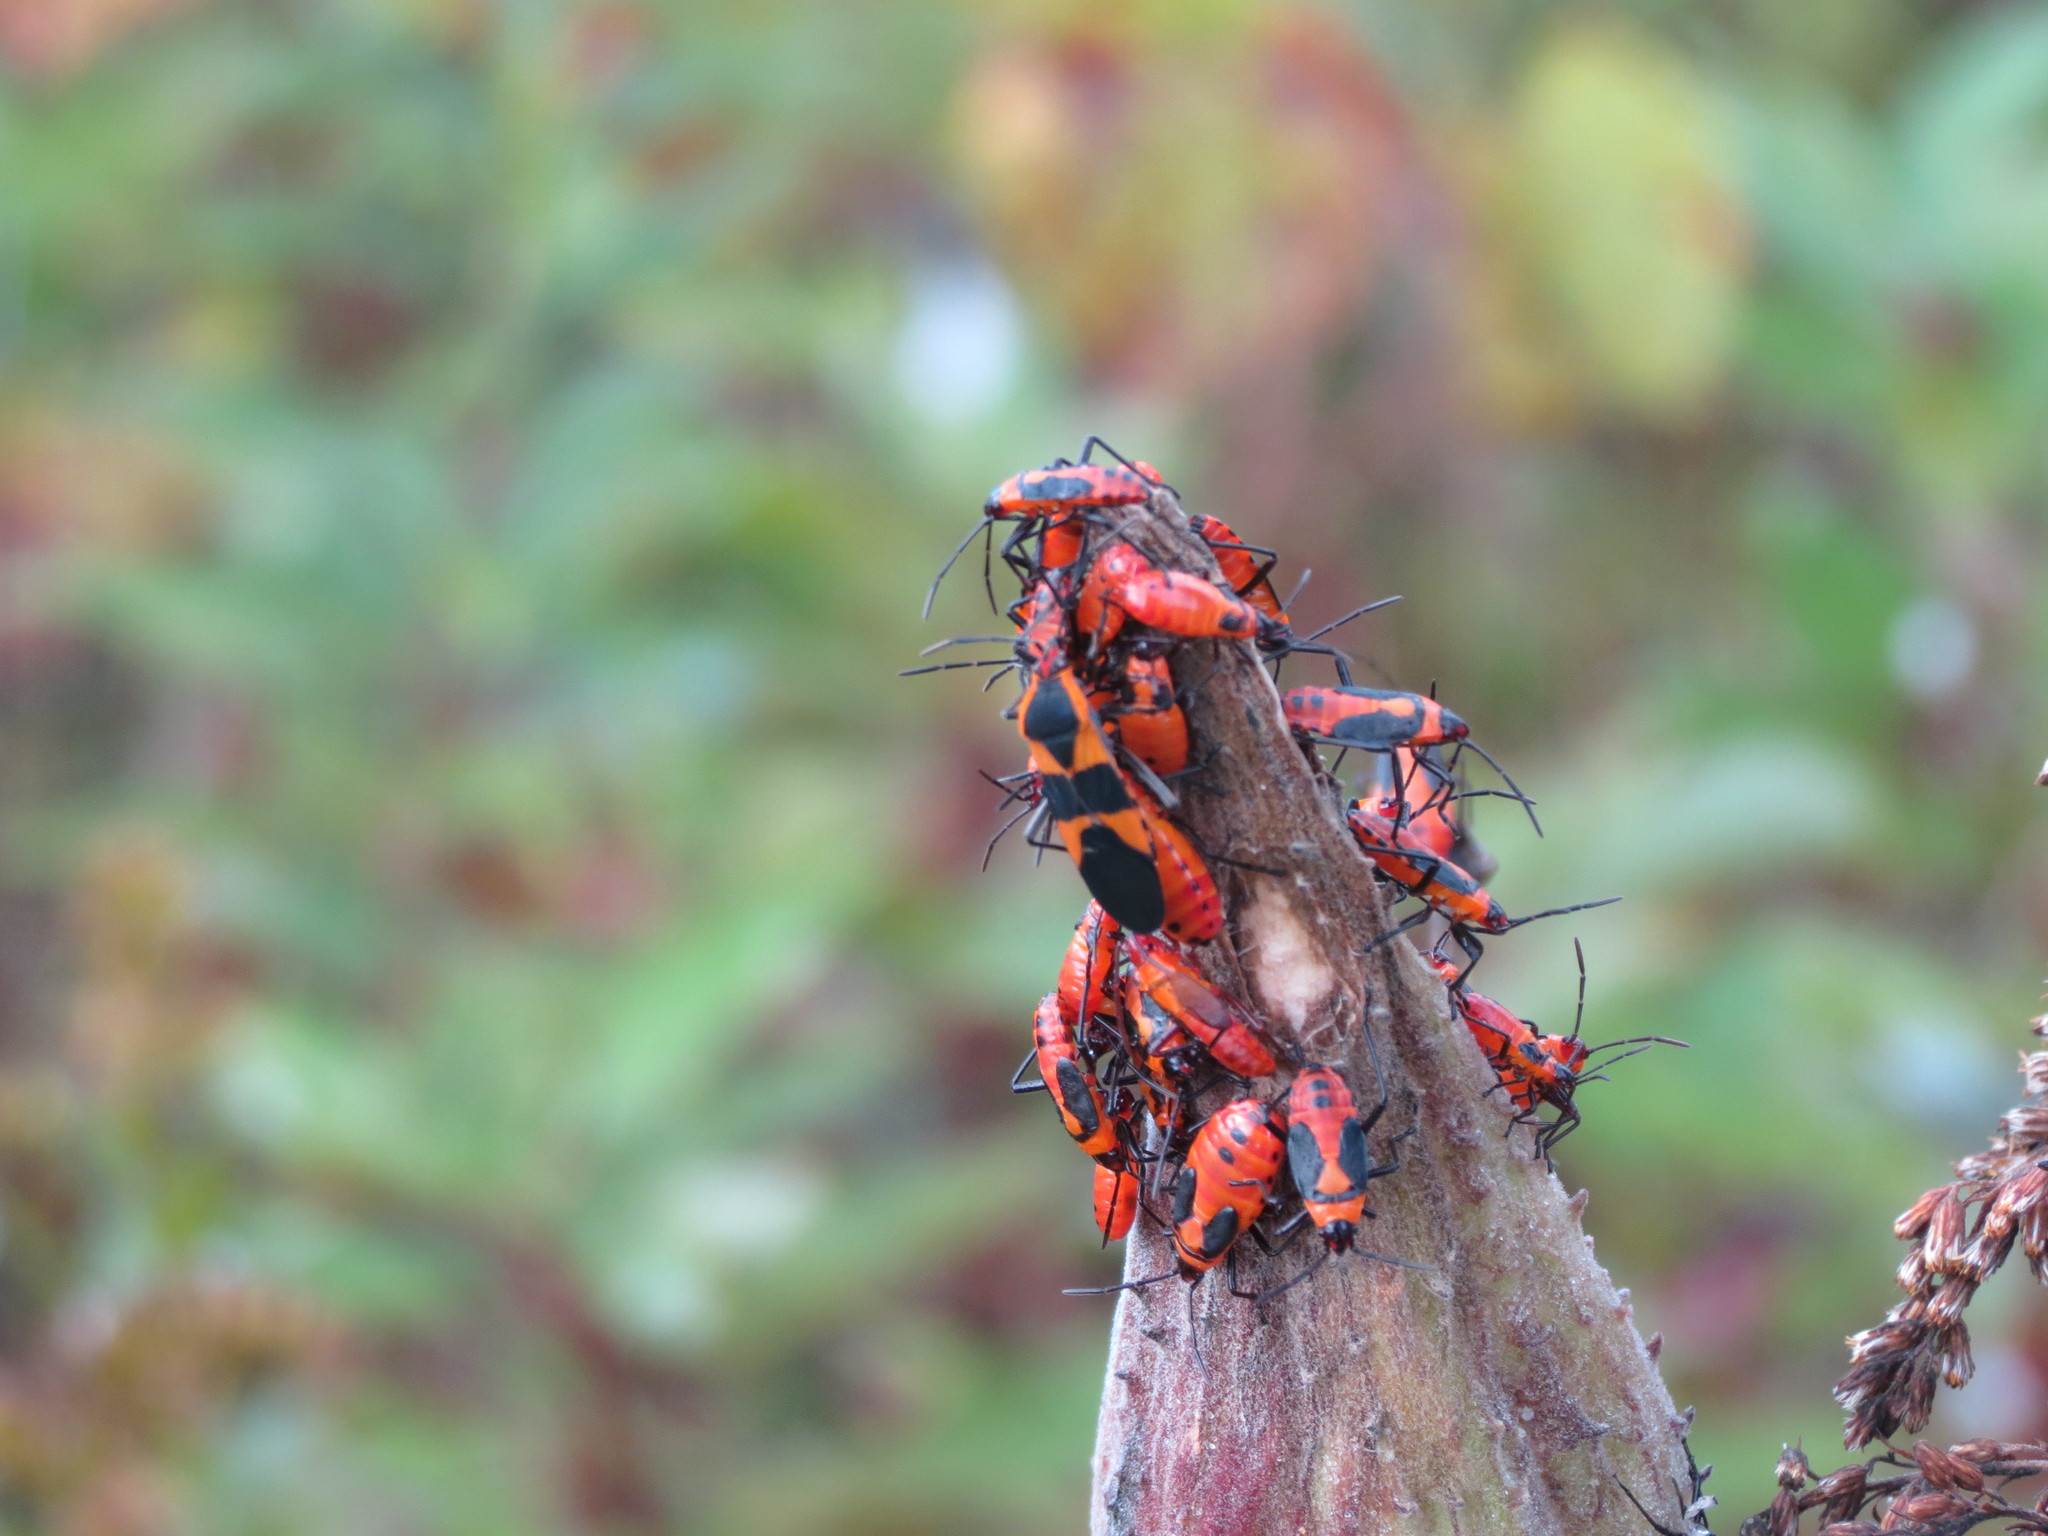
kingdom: Animalia
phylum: Arthropoda
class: Insecta
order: Hemiptera
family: Lygaeidae
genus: Oncopeltus
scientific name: Oncopeltus fasciatus
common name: Large milkweed bug
